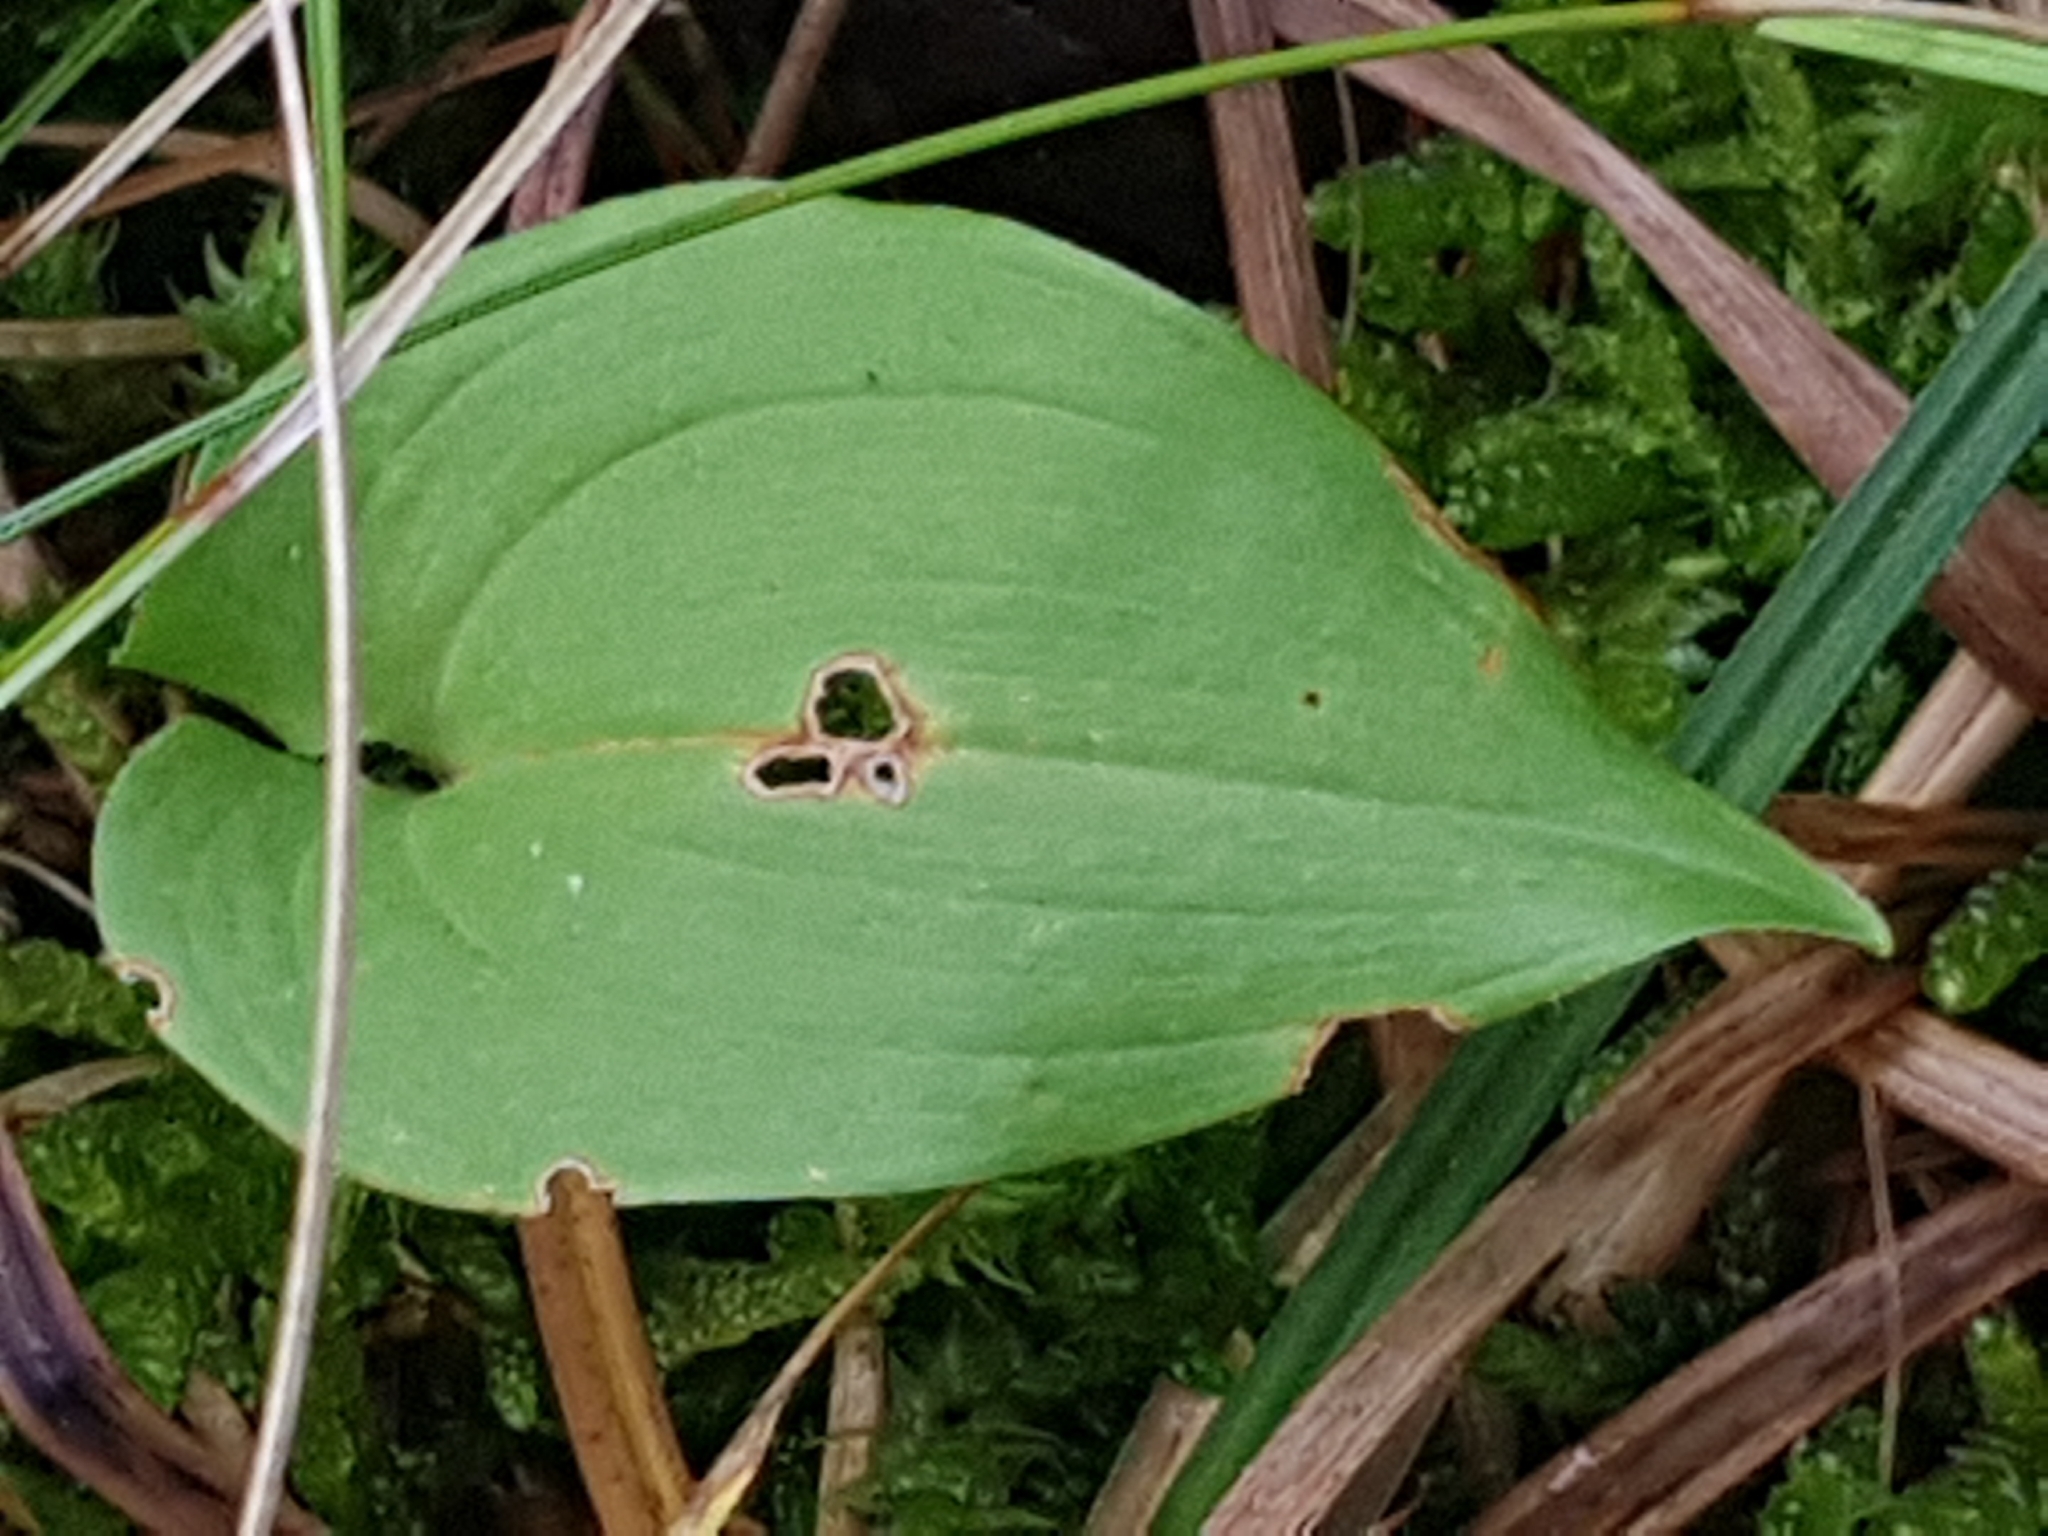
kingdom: Plantae
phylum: Tracheophyta
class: Liliopsida
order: Asparagales
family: Asparagaceae
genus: Maianthemum
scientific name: Maianthemum bifolium
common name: May lily
